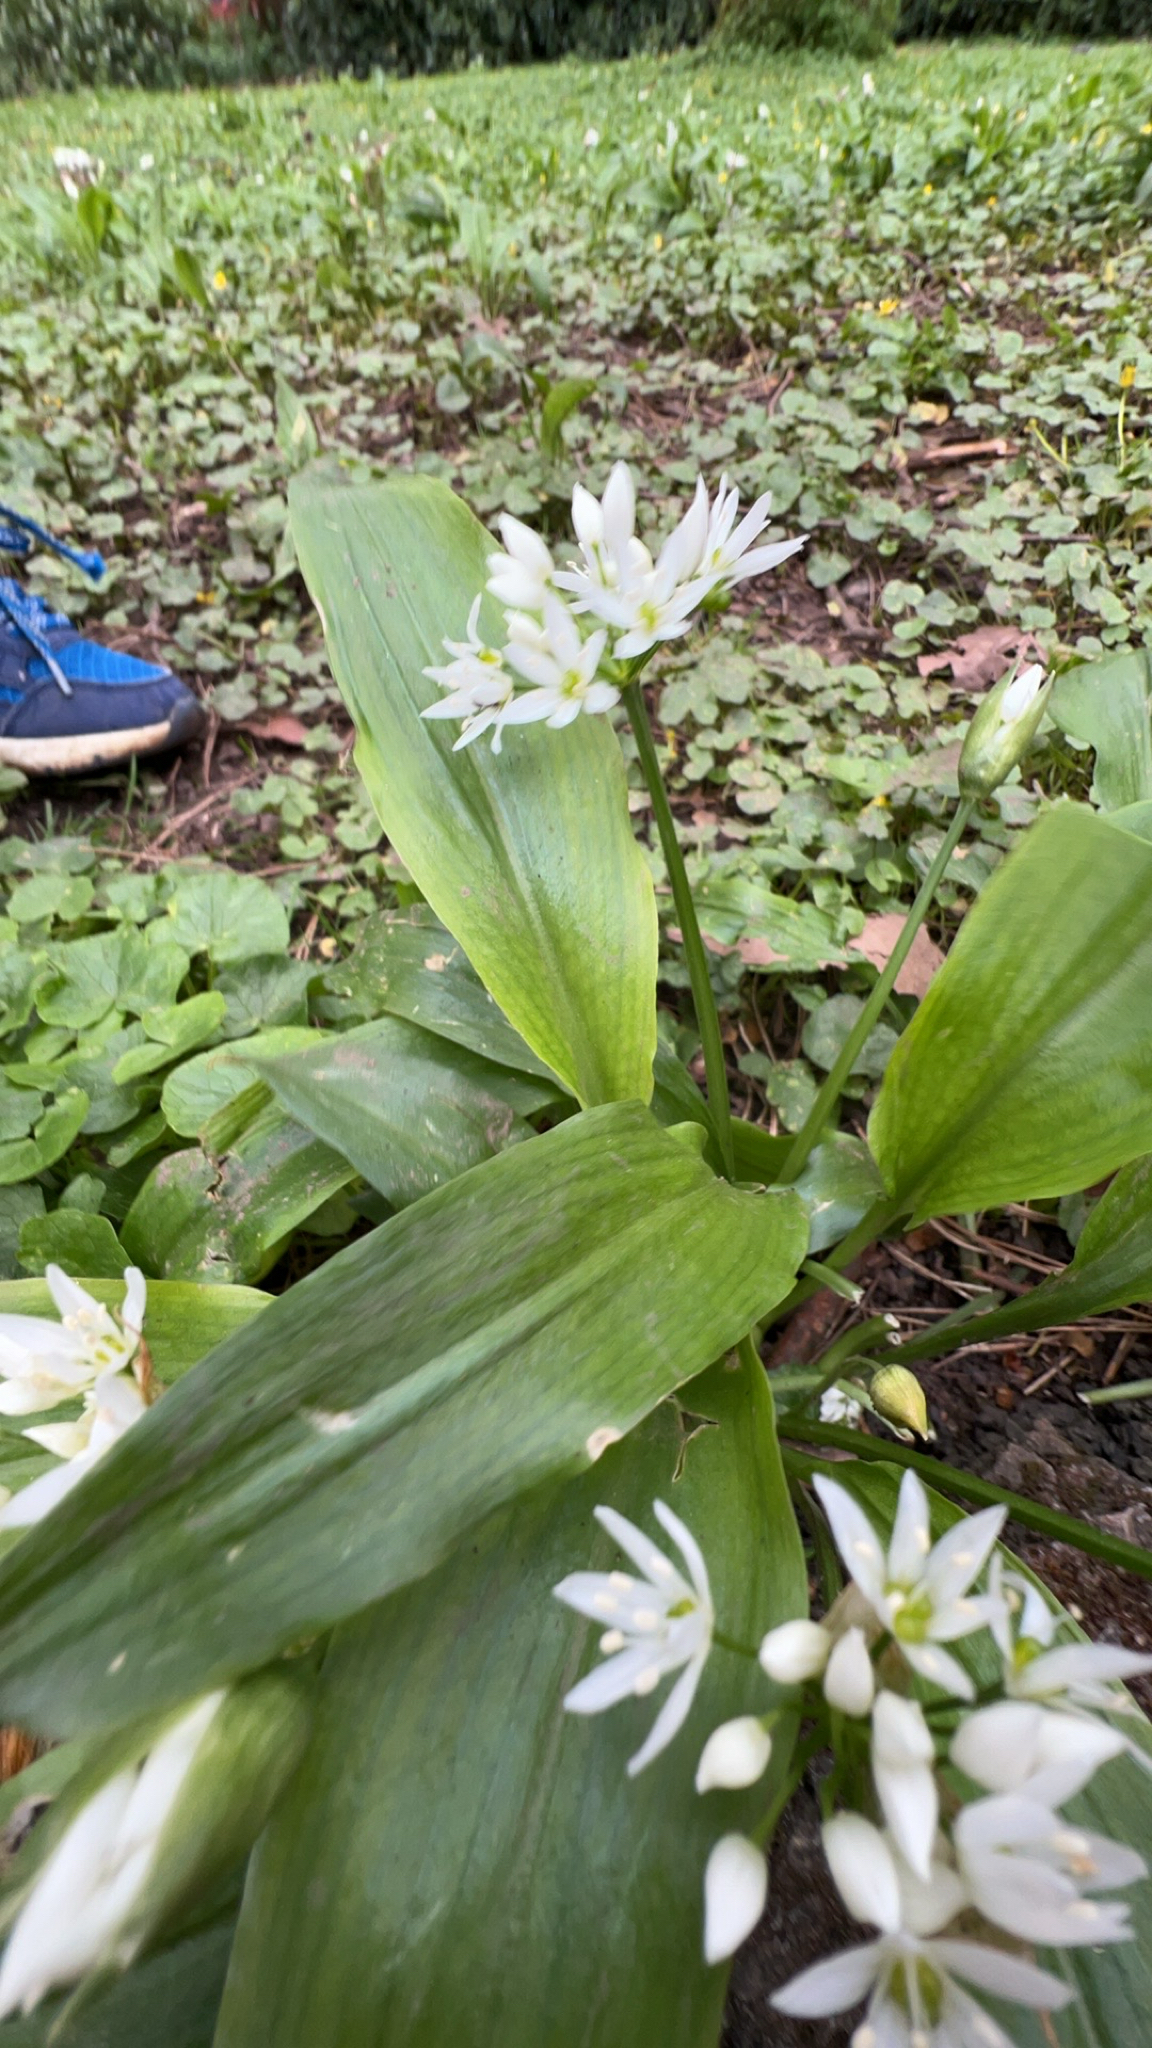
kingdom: Plantae
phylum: Tracheophyta
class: Liliopsida
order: Asparagales
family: Amaryllidaceae
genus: Allium
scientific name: Allium ursinum
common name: Ramsons
